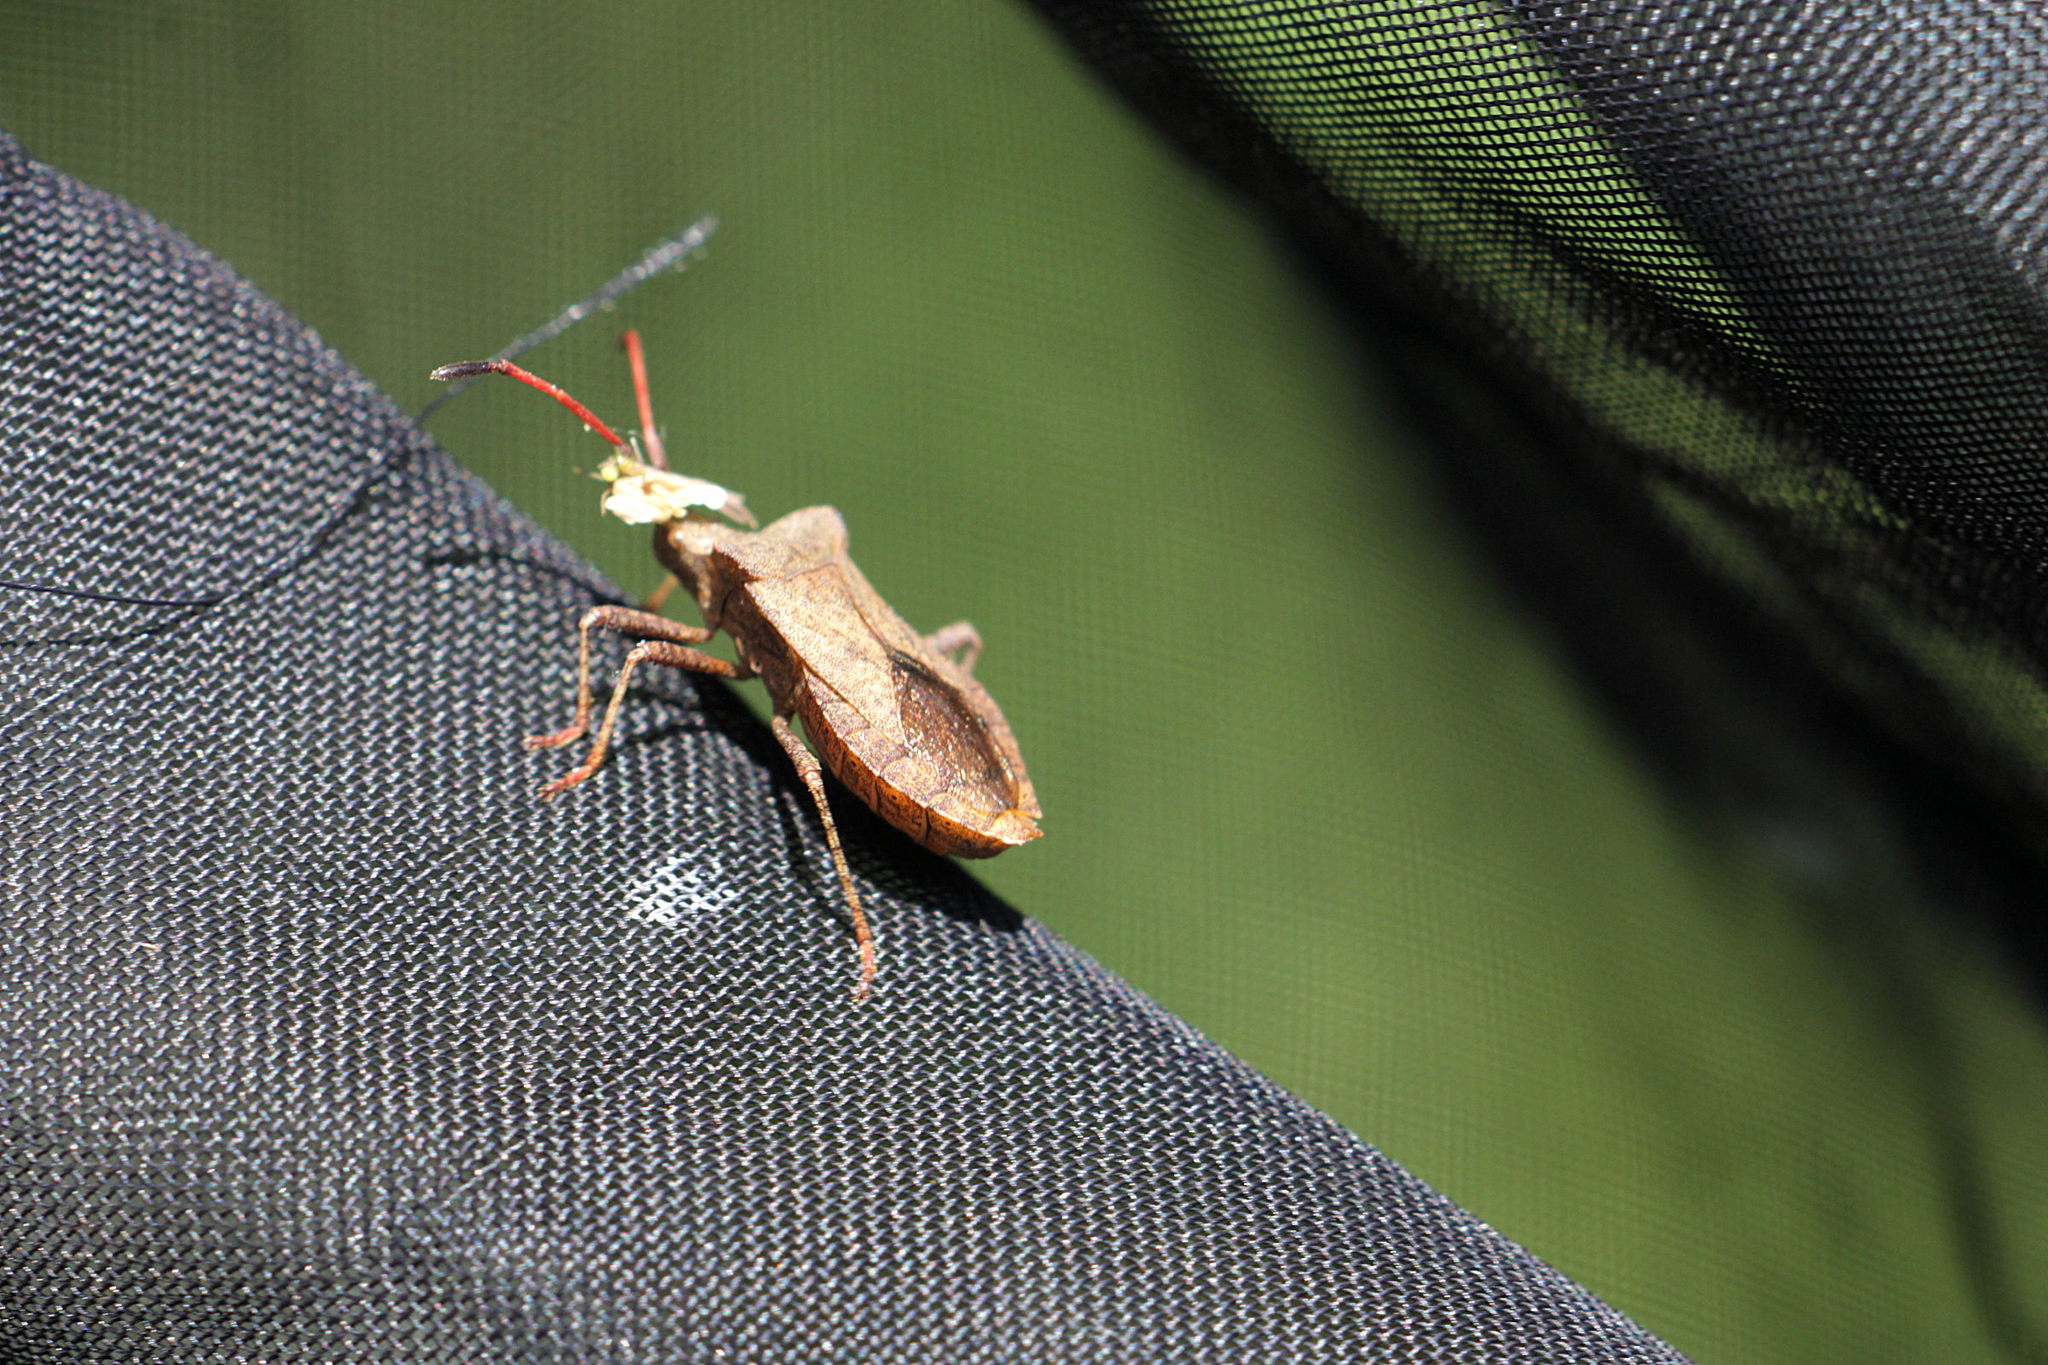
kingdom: Animalia
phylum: Arthropoda
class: Insecta
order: Hemiptera
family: Coreidae
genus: Coreus
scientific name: Coreus marginatus
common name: Dock bug
